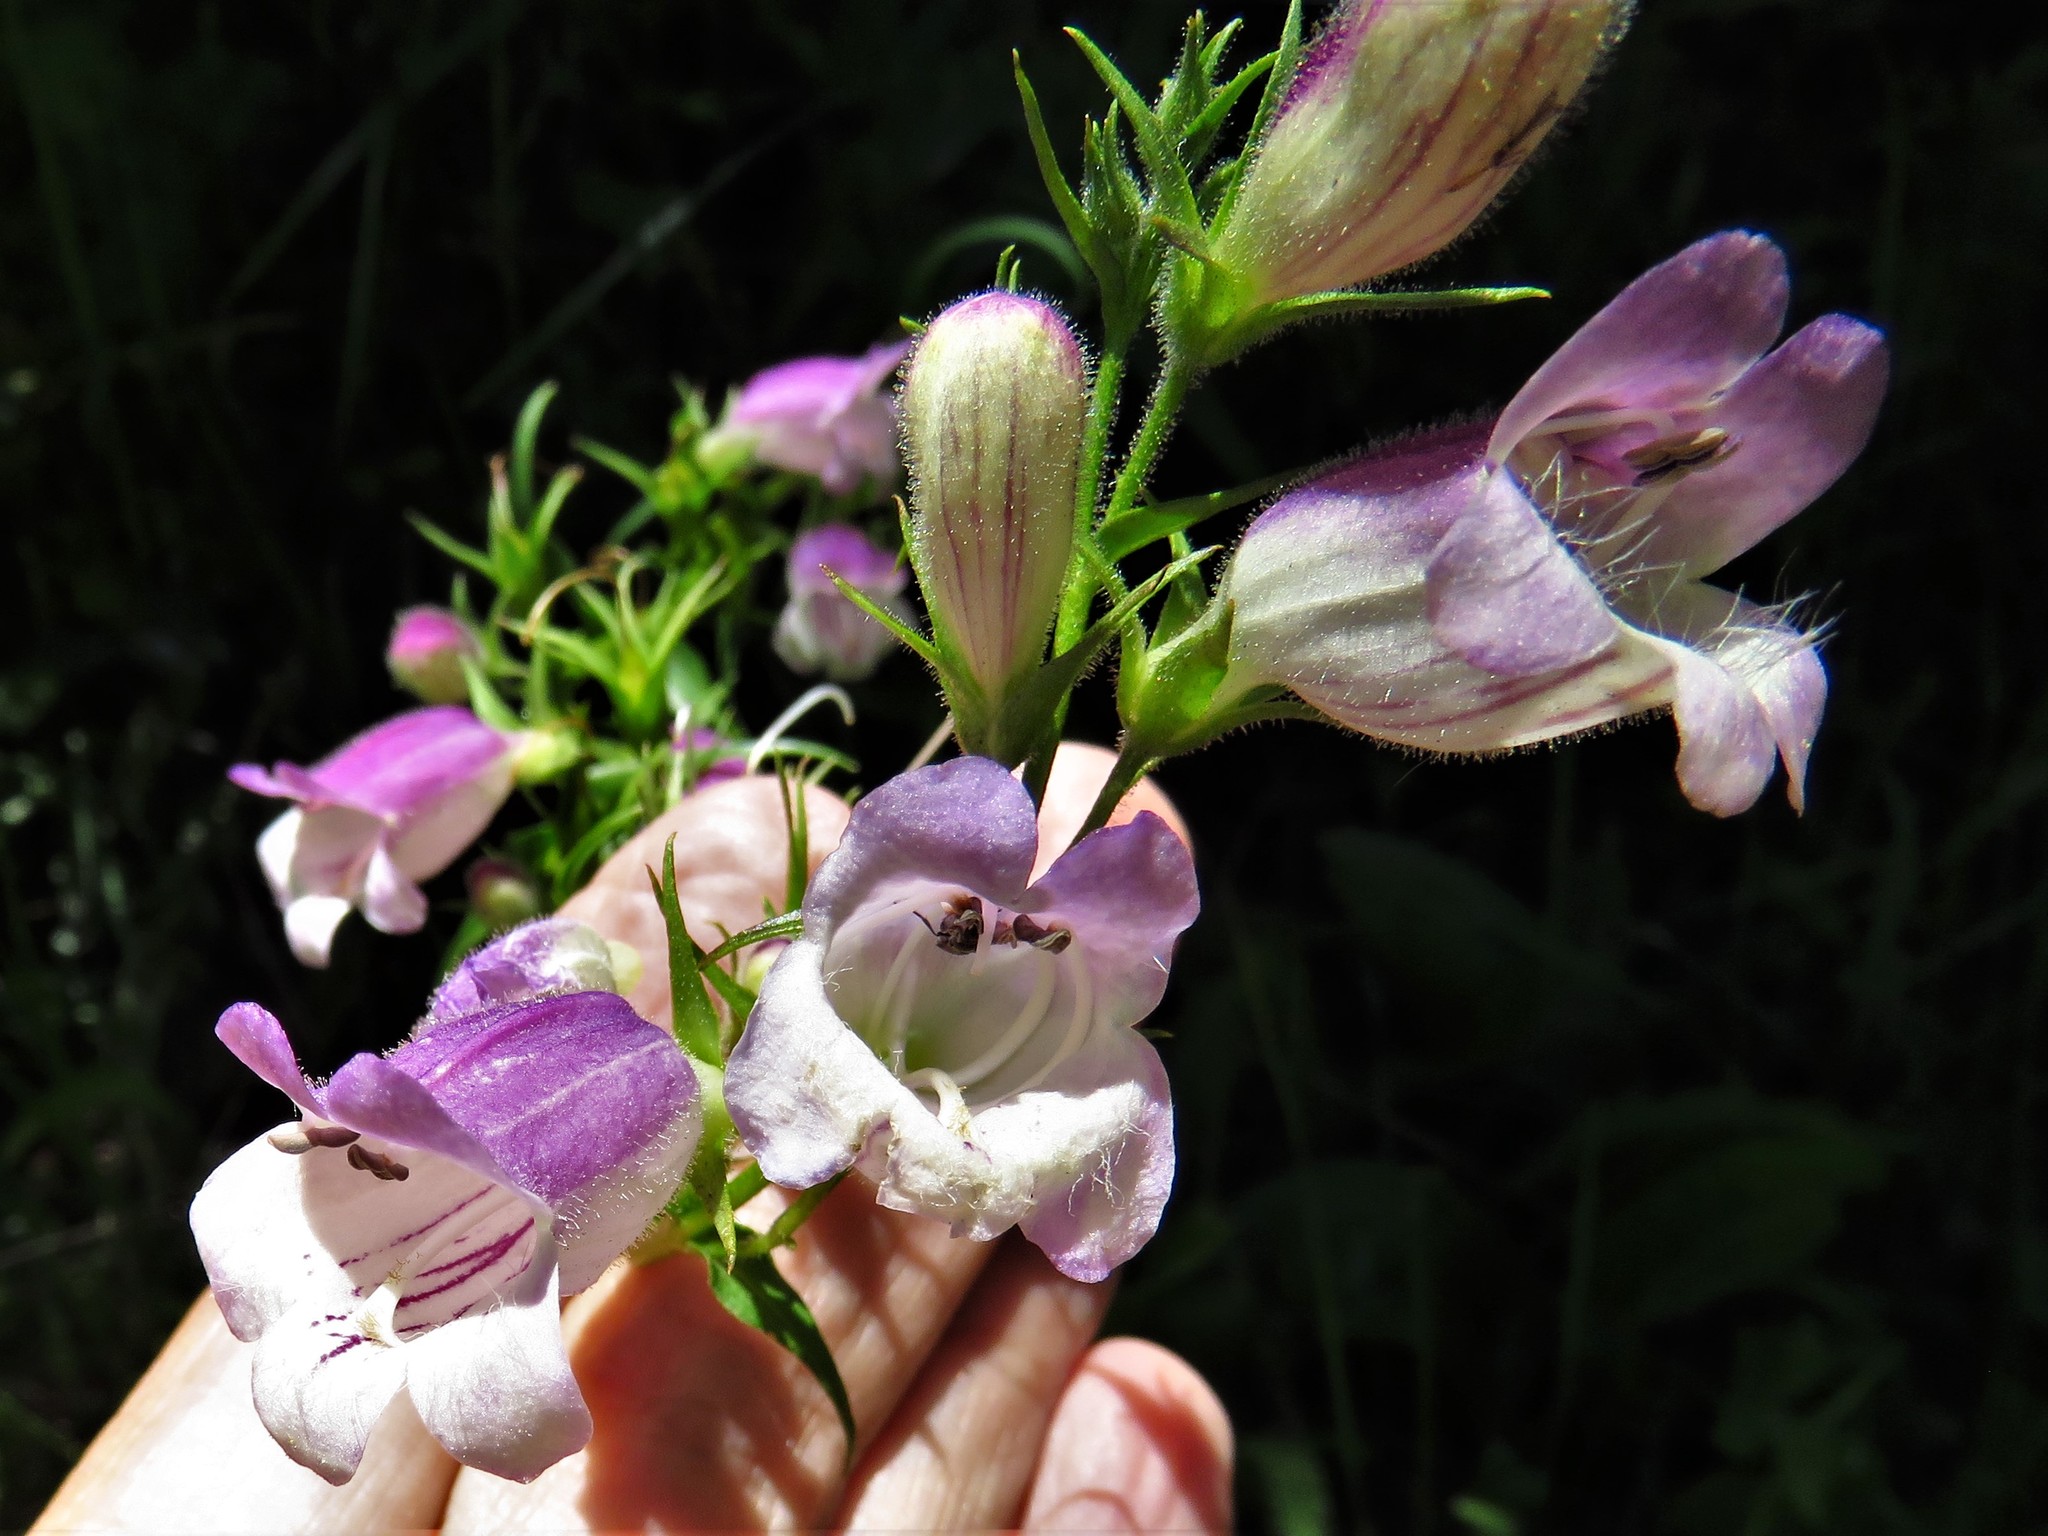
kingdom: Plantae
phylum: Tracheophyta
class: Magnoliopsida
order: Lamiales
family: Plantaginaceae
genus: Penstemon
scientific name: Penstemon campanulatus
